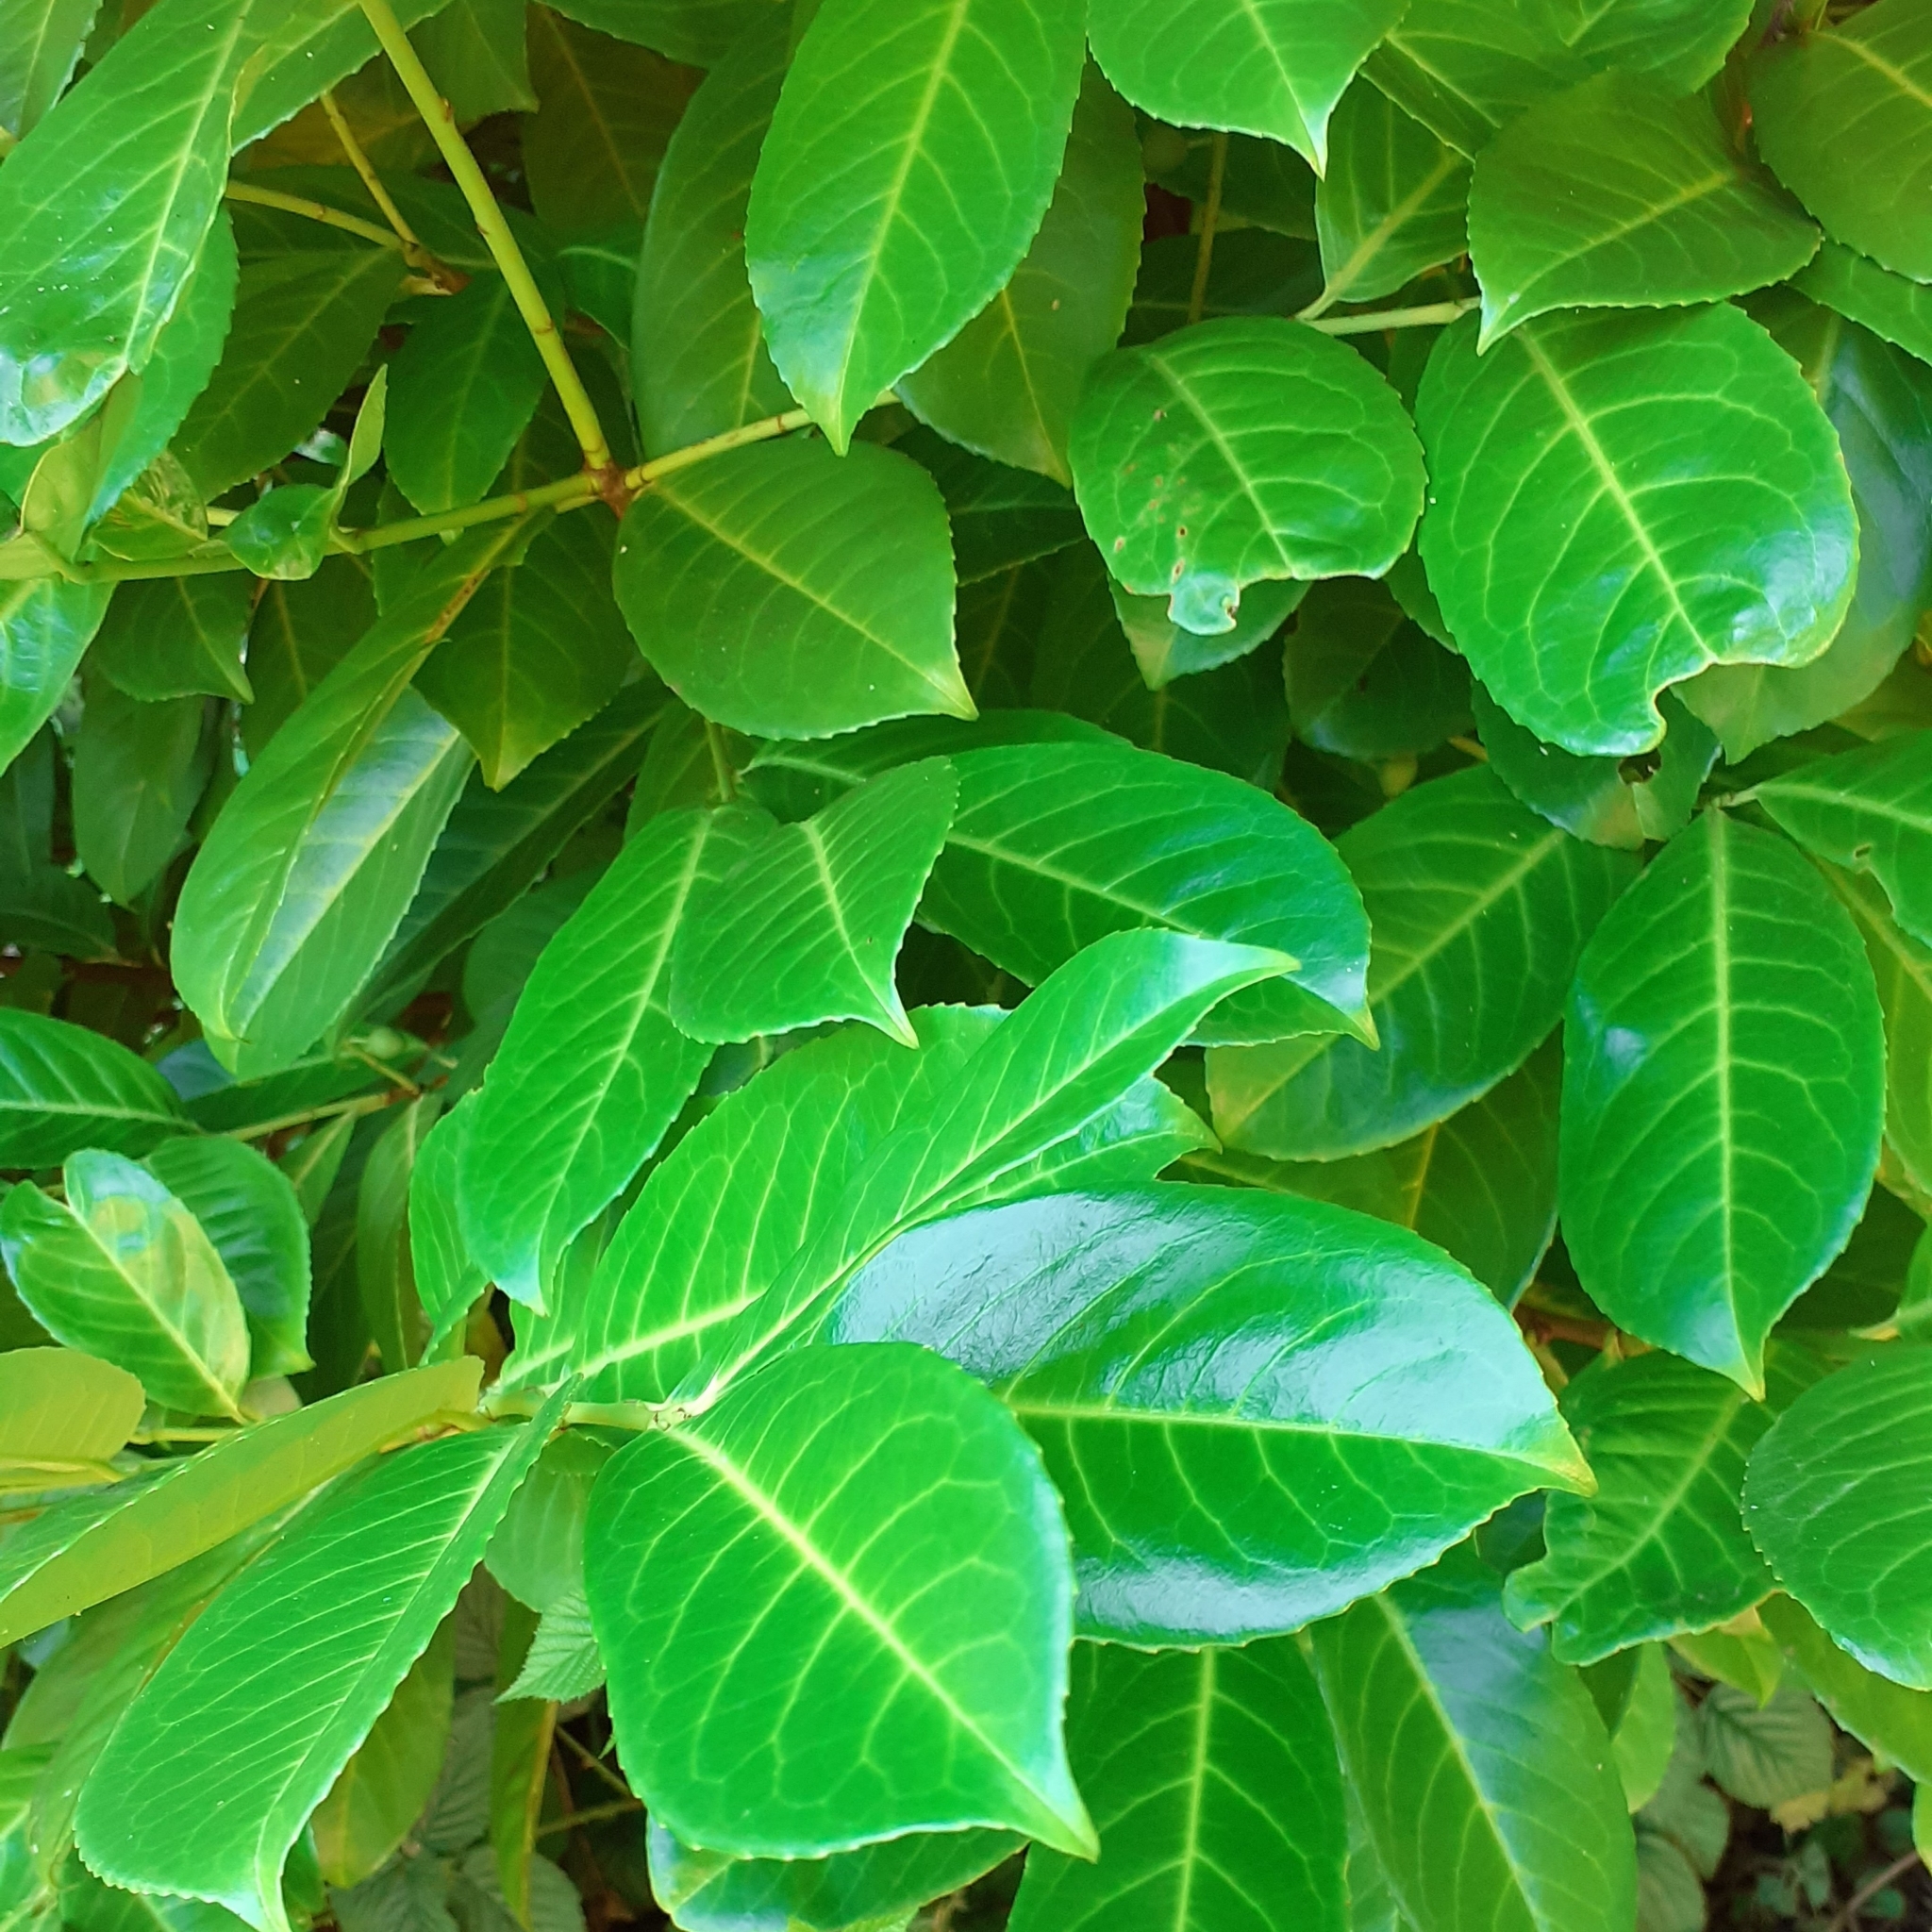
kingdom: Plantae
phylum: Tracheophyta
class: Magnoliopsida
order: Rosales
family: Rosaceae
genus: Prunus
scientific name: Prunus laurocerasus
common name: Cherry laurel
